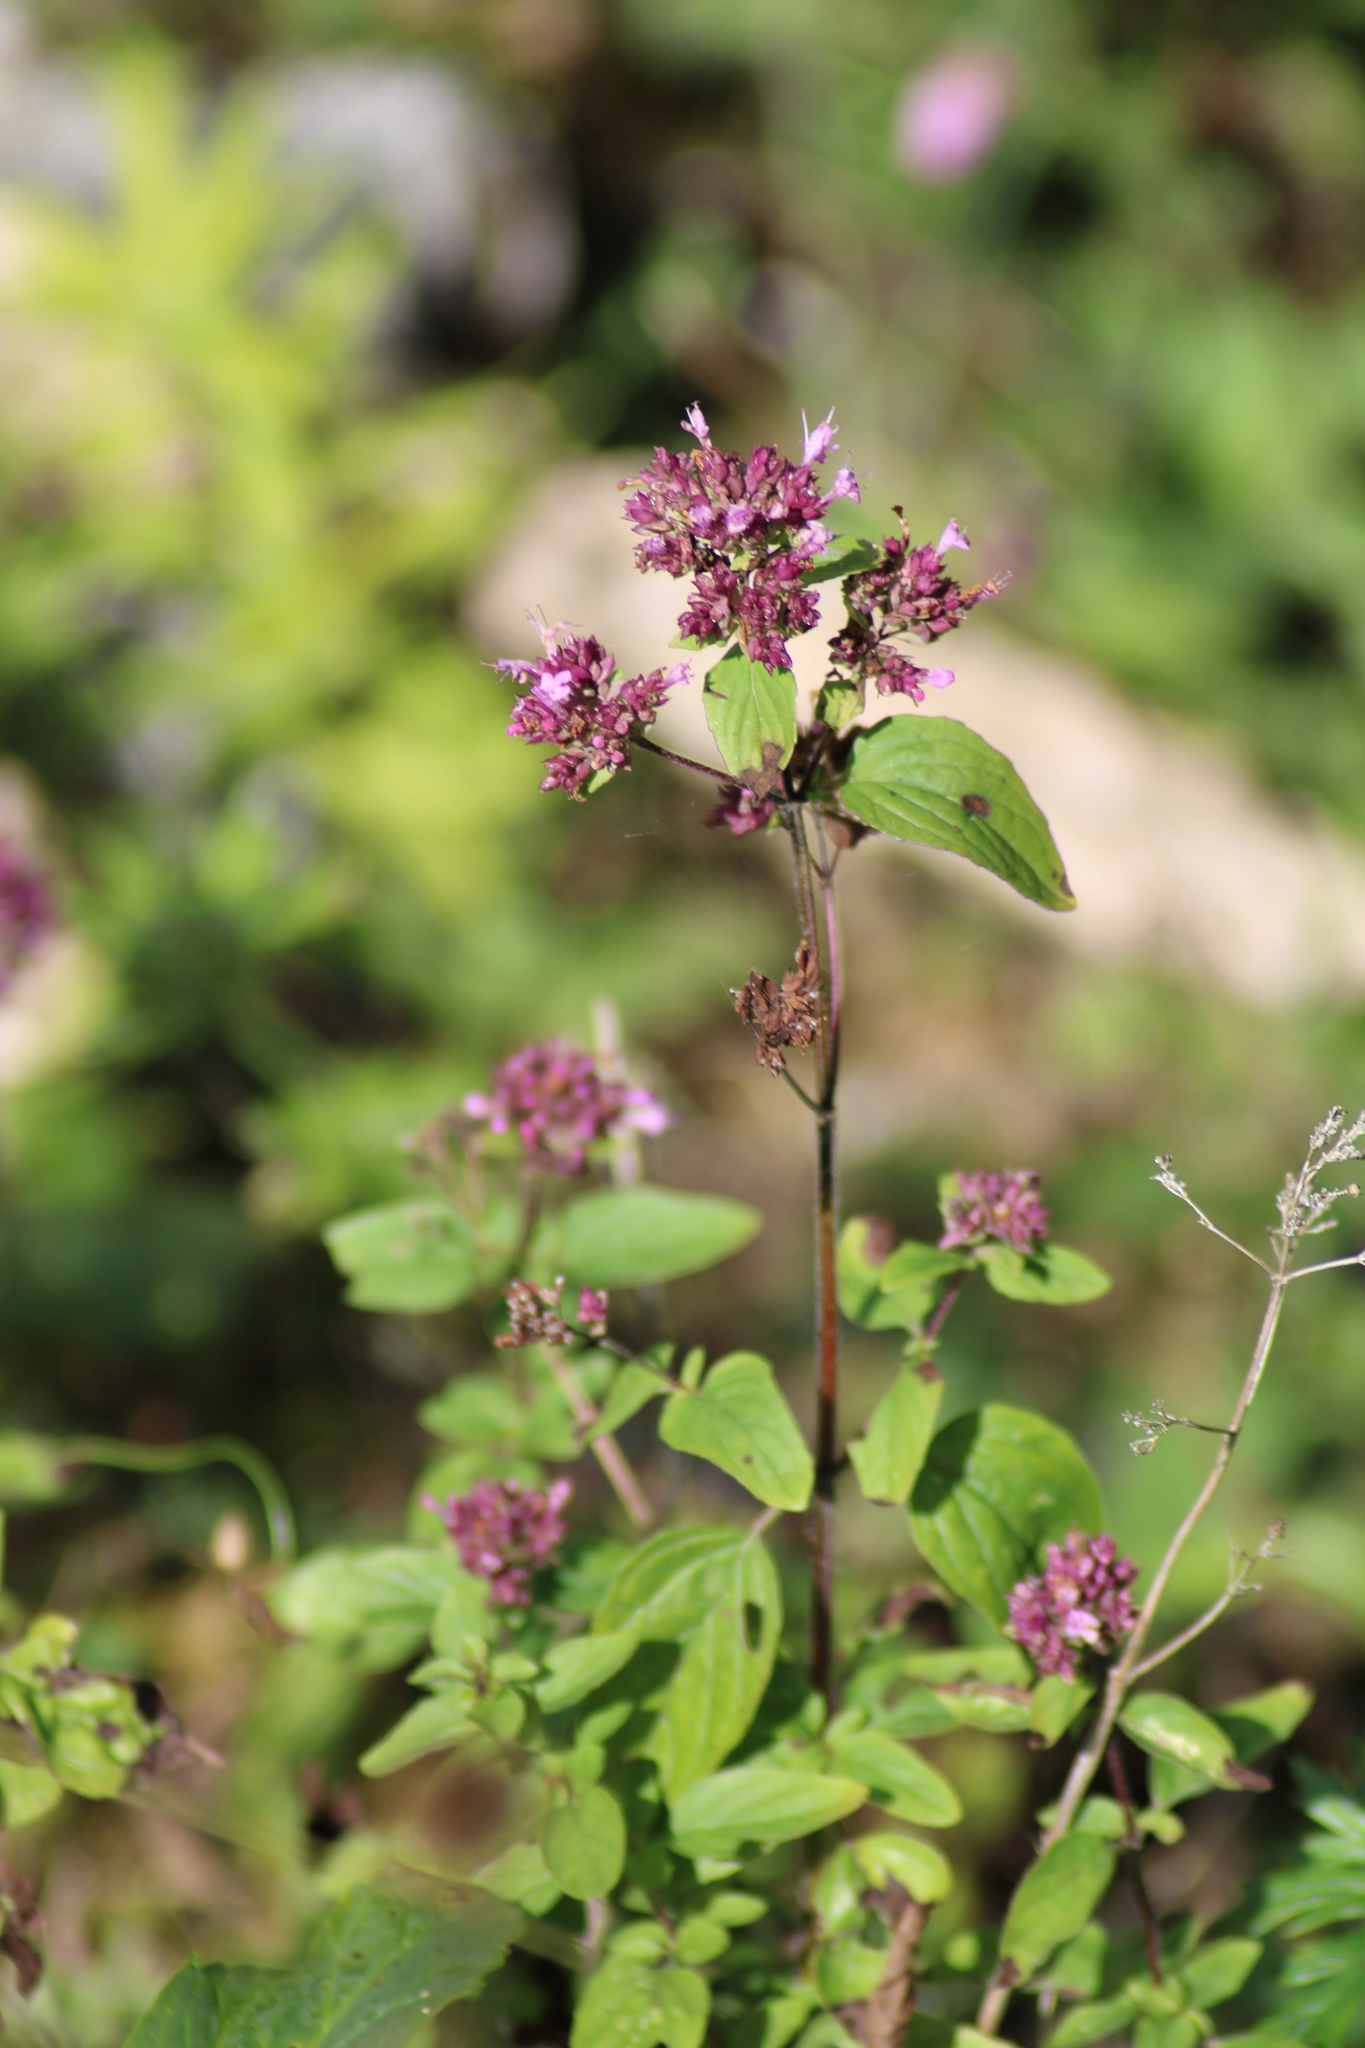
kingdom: Plantae
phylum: Tracheophyta
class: Magnoliopsida
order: Lamiales
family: Lamiaceae
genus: Origanum
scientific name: Origanum vulgare
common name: Wild marjoram
